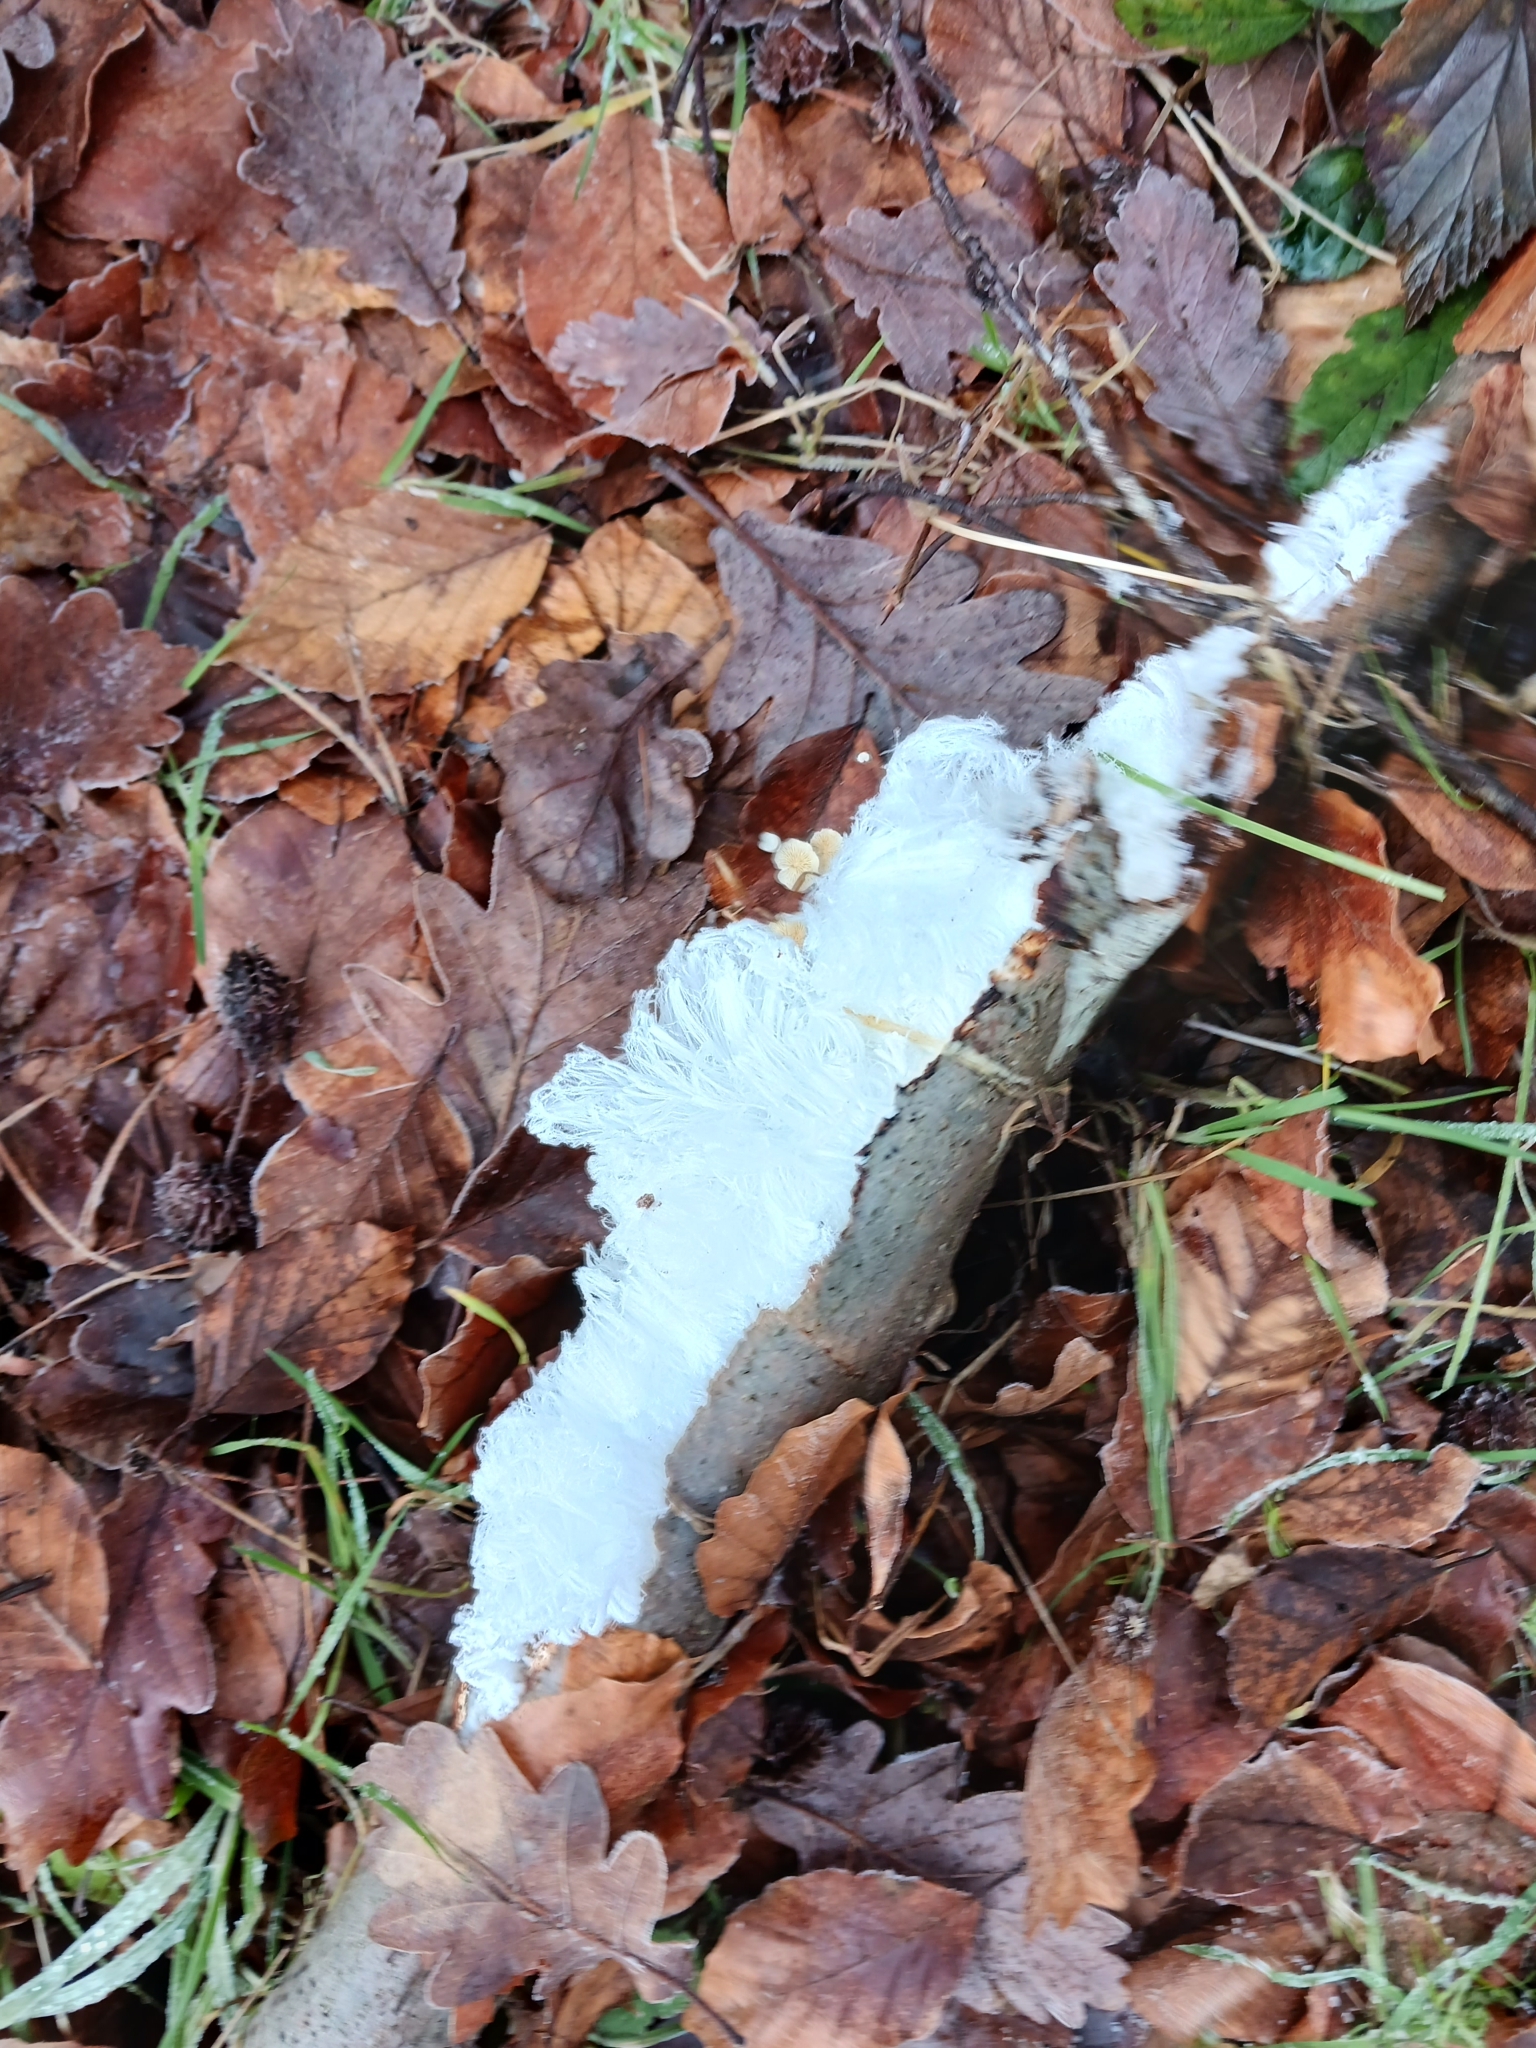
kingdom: Fungi
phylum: Basidiomycota
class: Agaricomycetes
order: Auriculariales
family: Auriculariaceae
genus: Exidiopsis
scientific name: Exidiopsis effusa
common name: Hair ice crust
